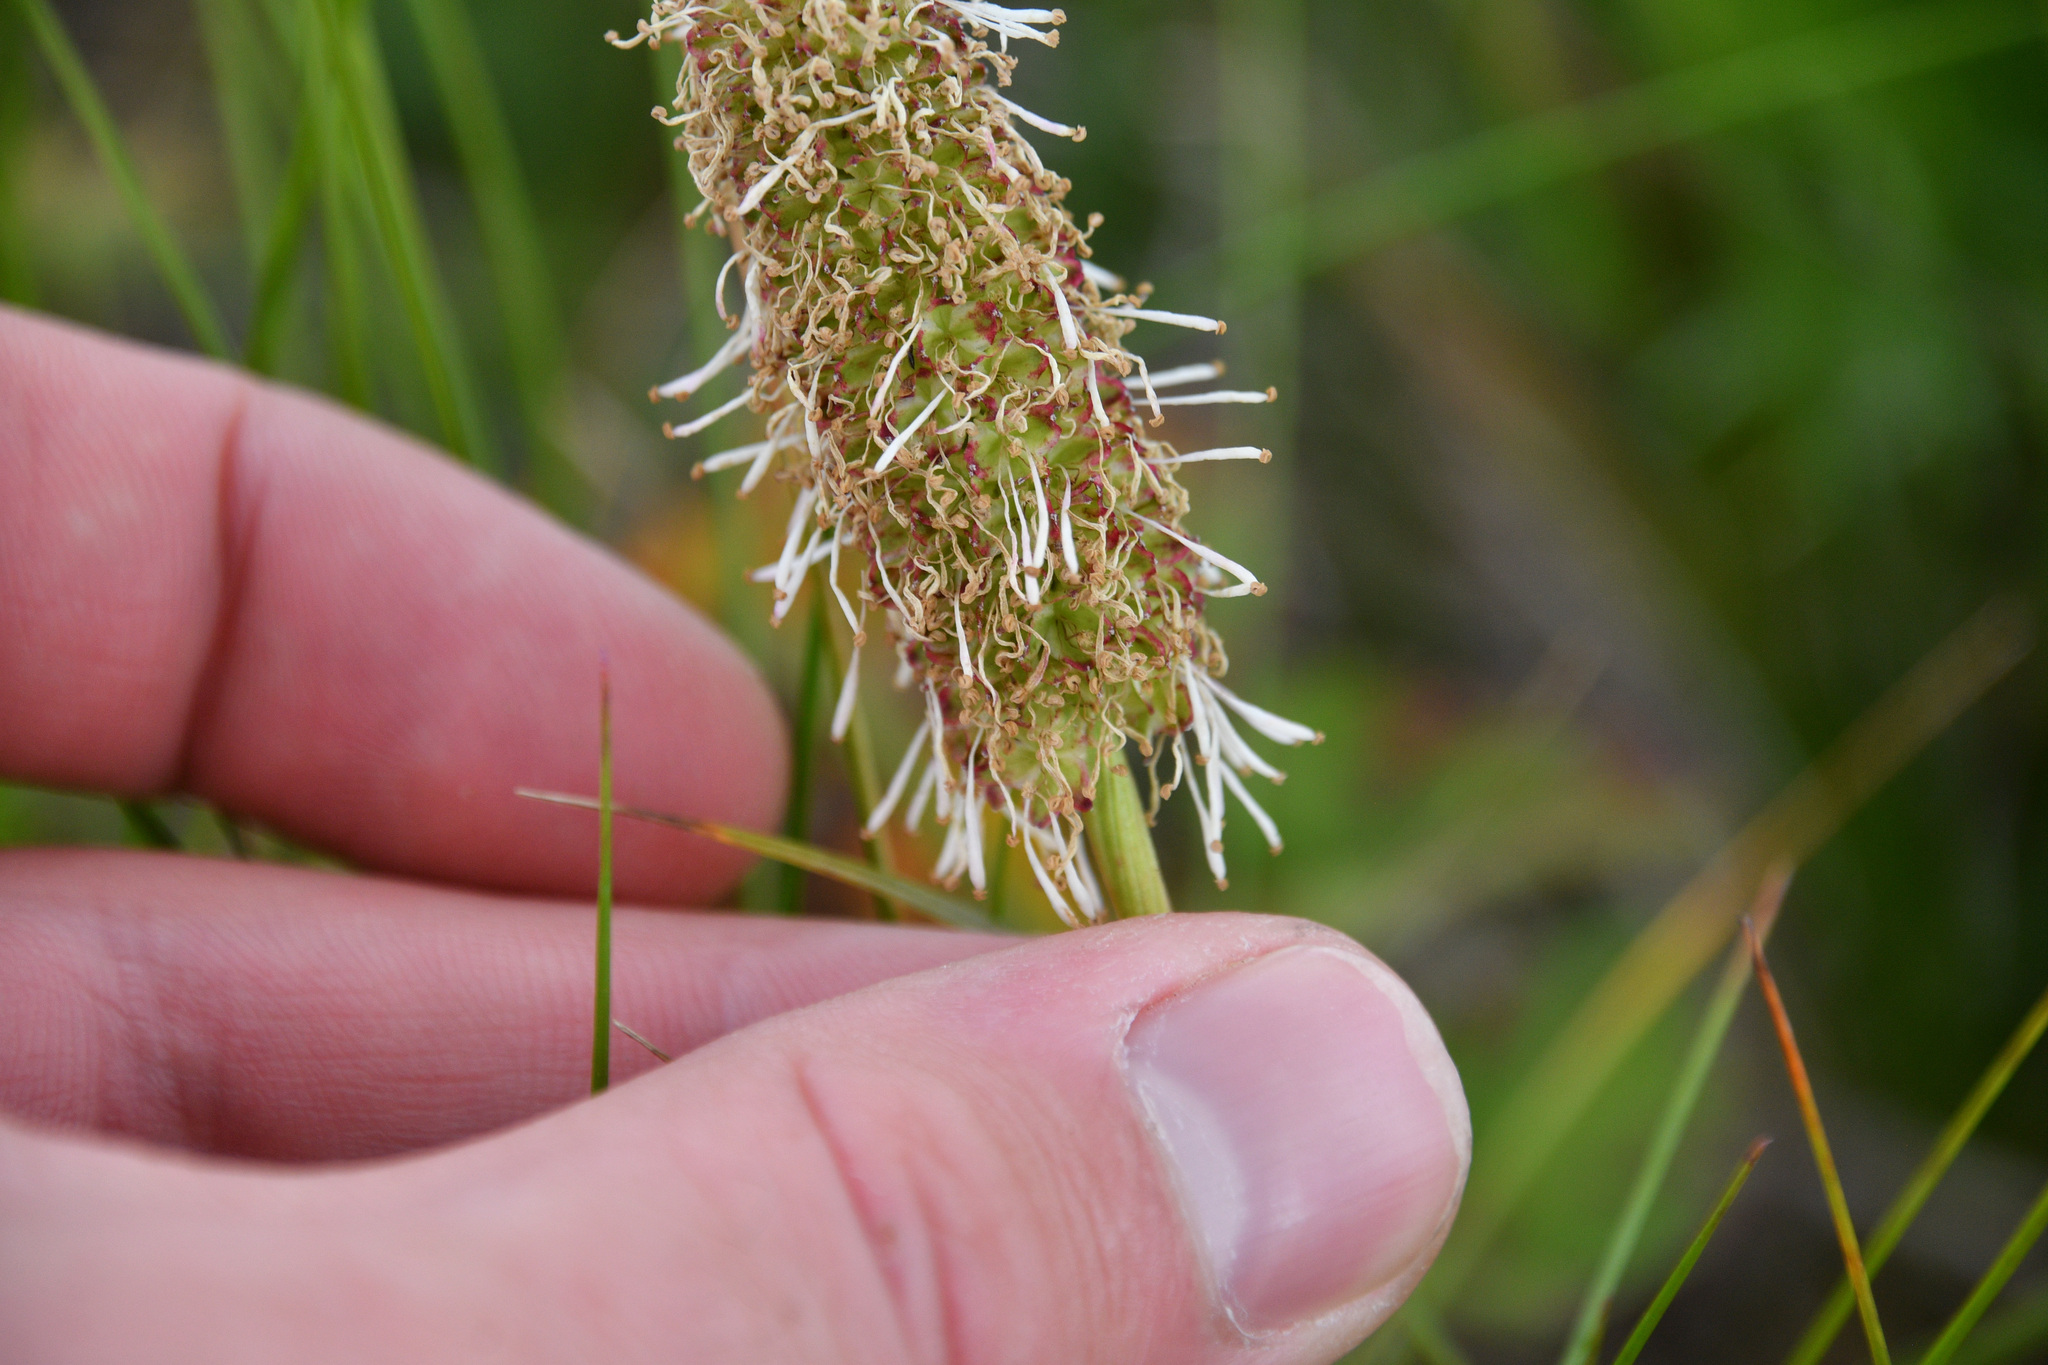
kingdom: Plantae
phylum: Tracheophyta
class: Magnoliopsida
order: Rosales
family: Rosaceae
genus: Sanguisorba
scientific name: Sanguisorba stipulata
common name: Sitka burnet
